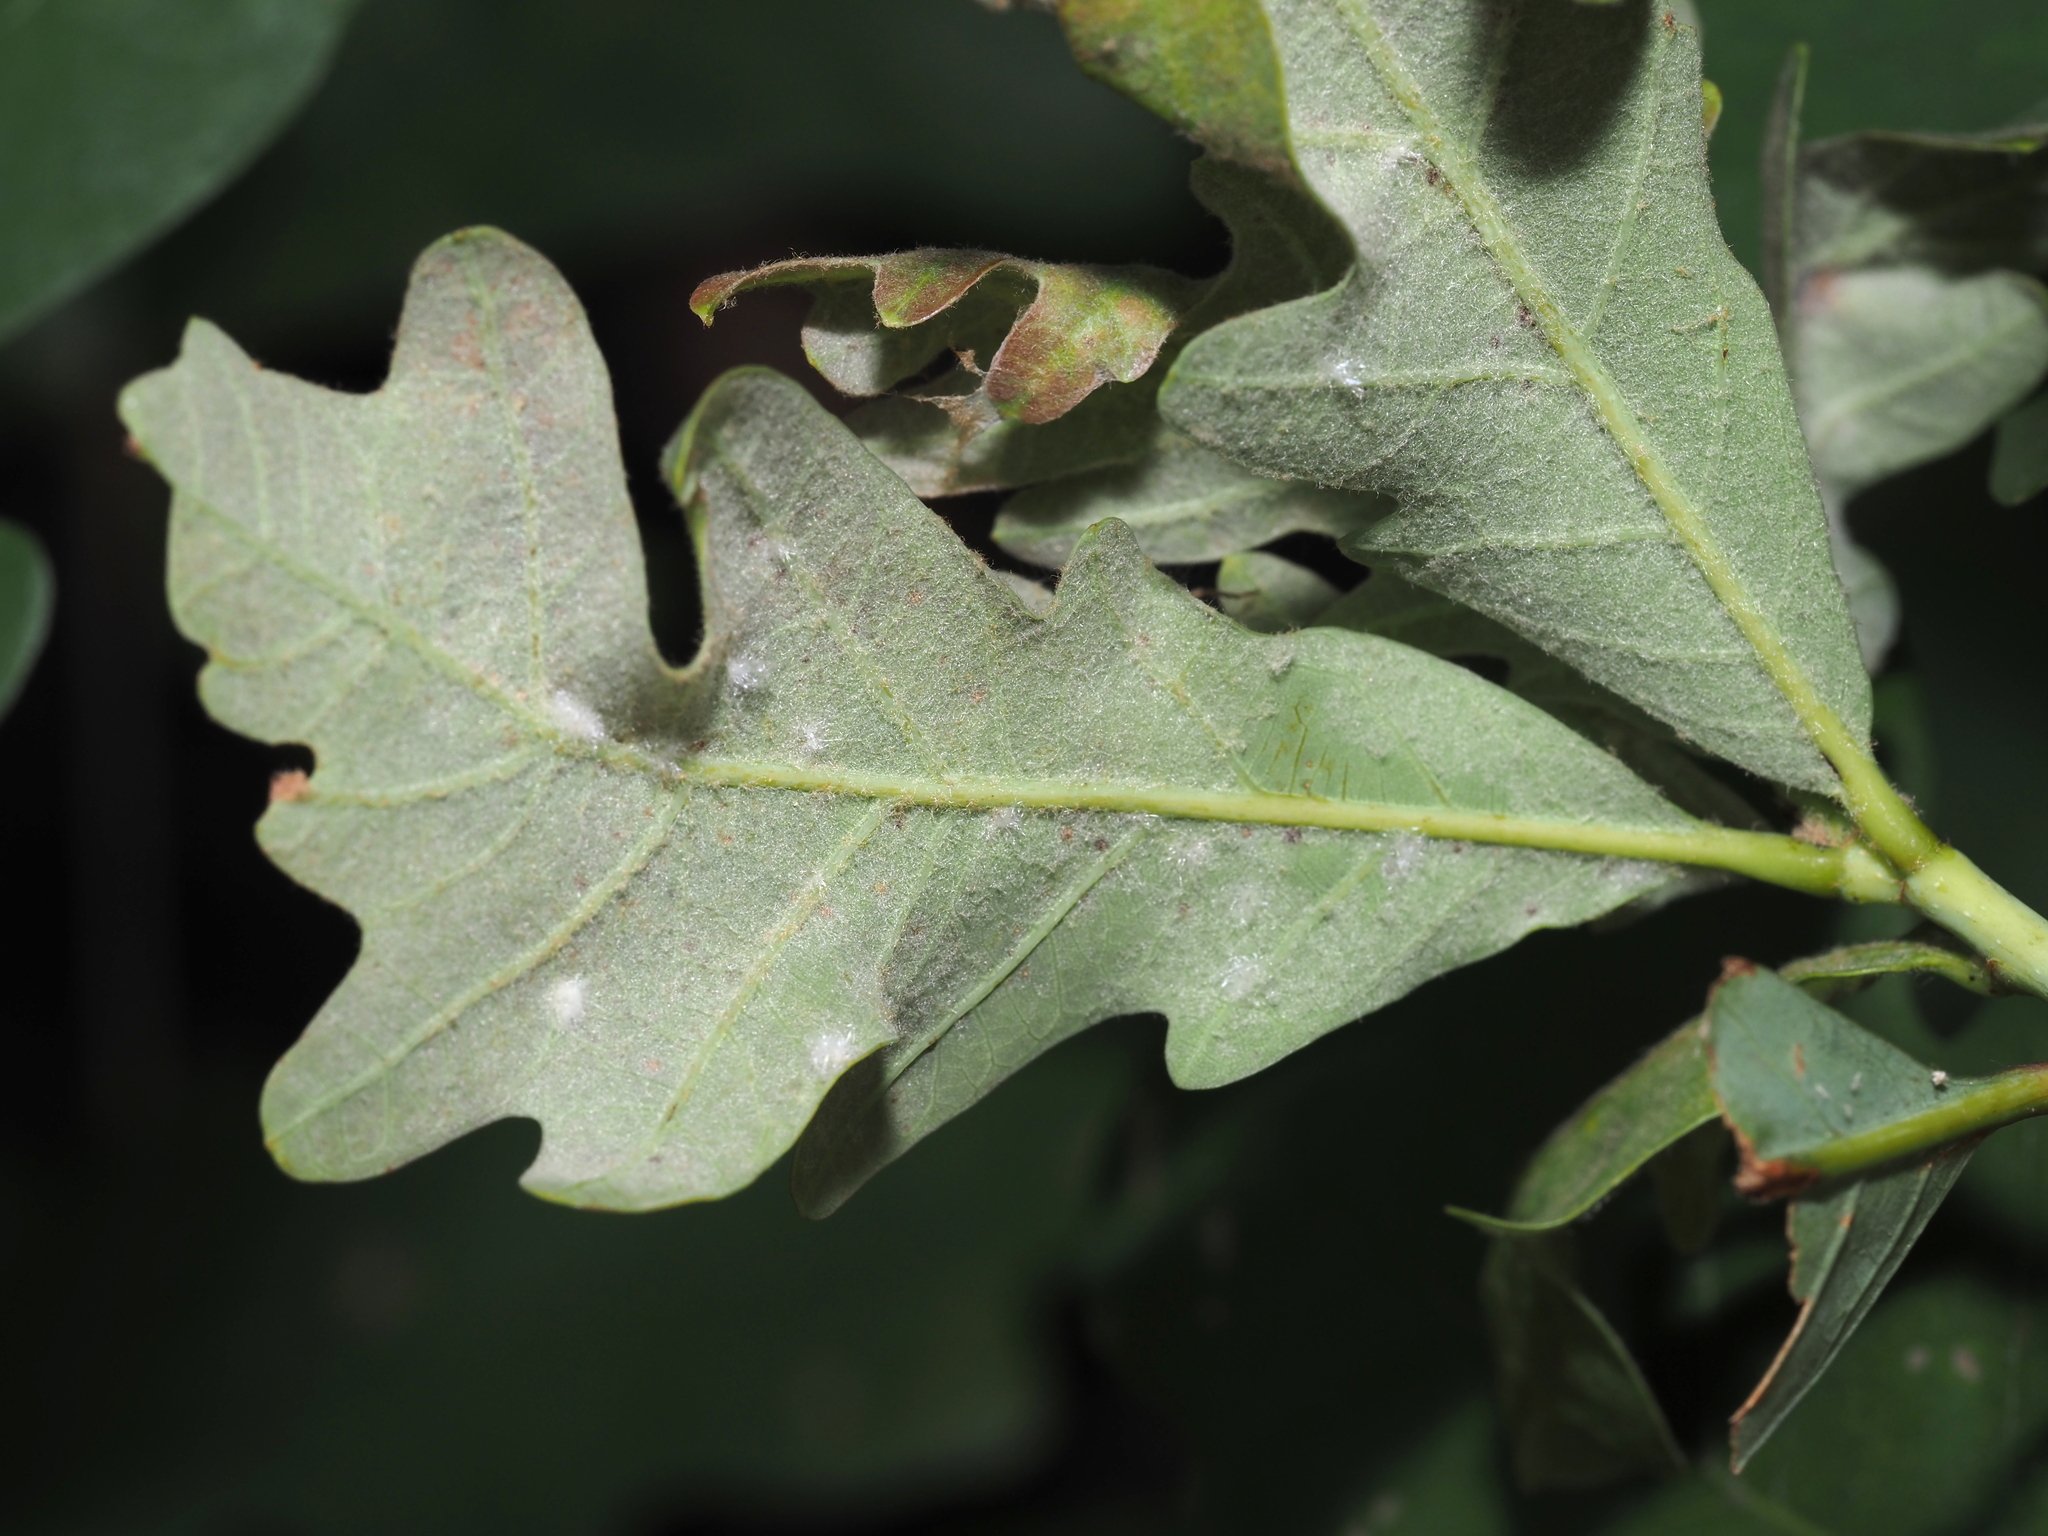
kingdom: Animalia
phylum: Arthropoda
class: Insecta
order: Hymenoptera
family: Cynipidae
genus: Neuroterus
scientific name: Neuroterus quercusverrucarum
